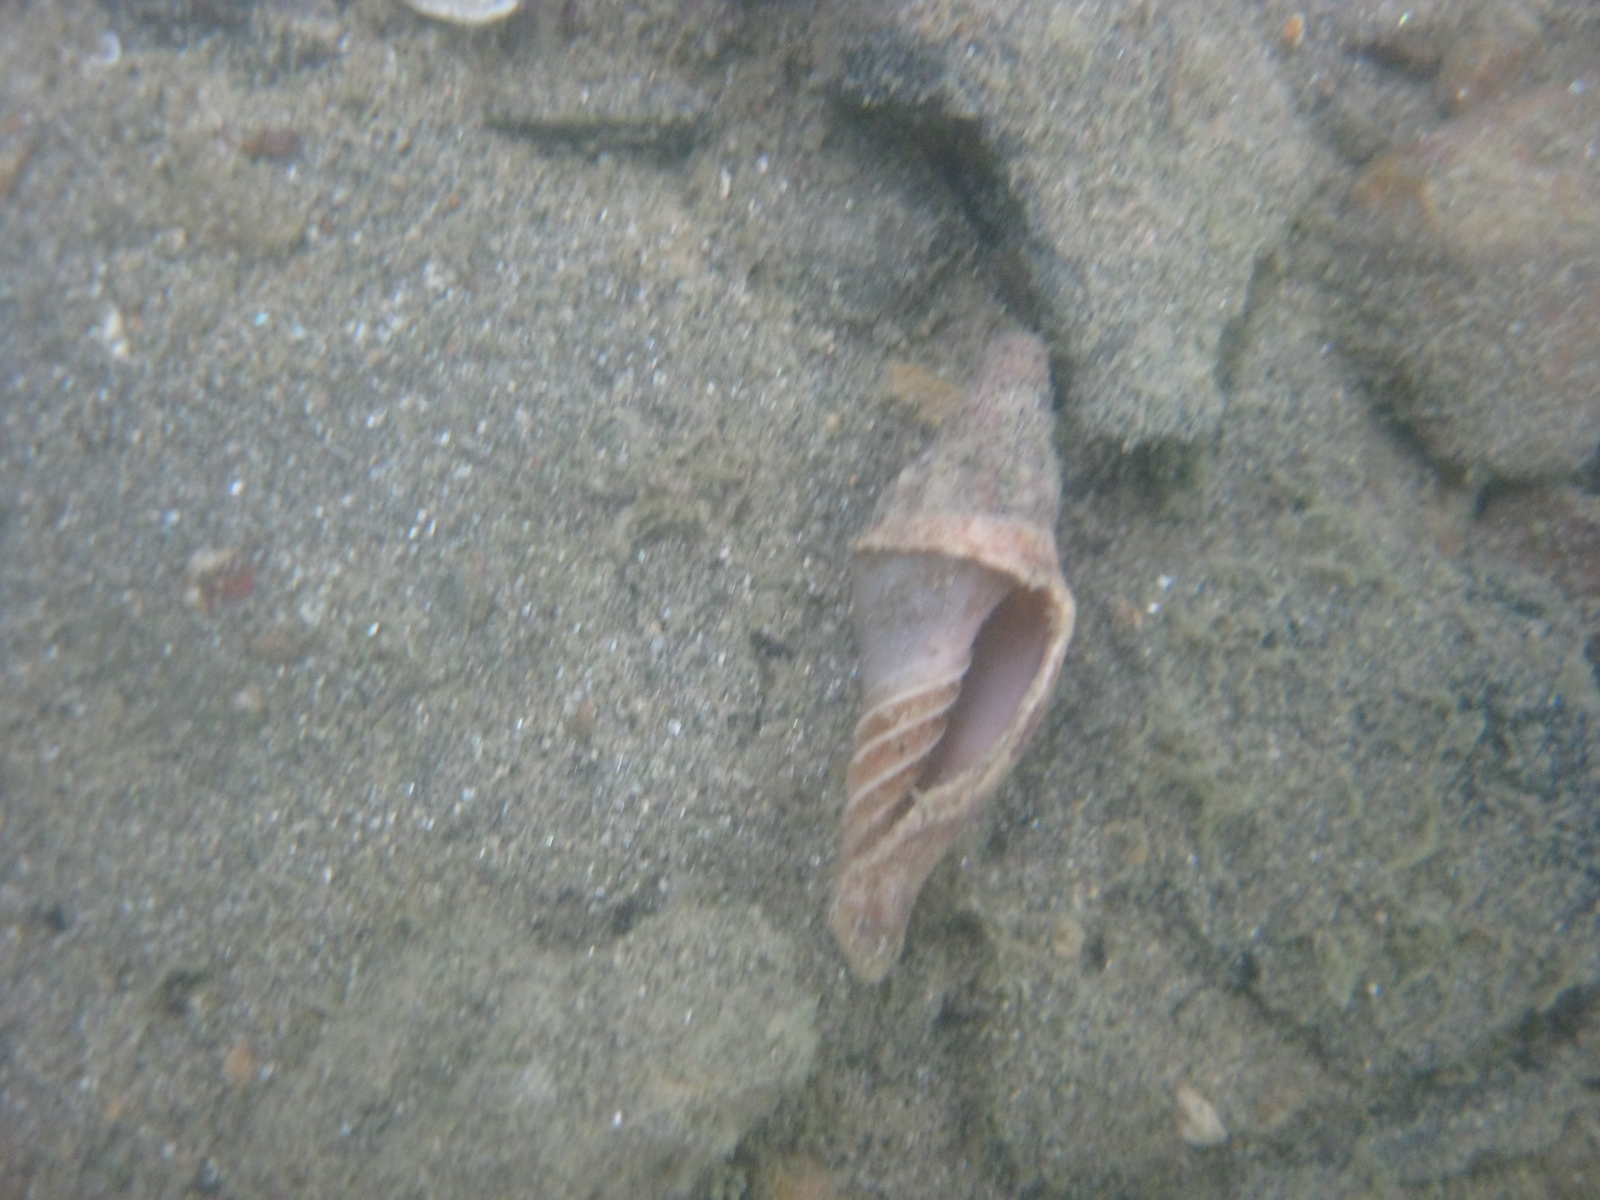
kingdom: Animalia
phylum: Mollusca
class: Gastropoda
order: Neogastropoda
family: Volutidae
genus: Alcithoe
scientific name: Alcithoe arabica
